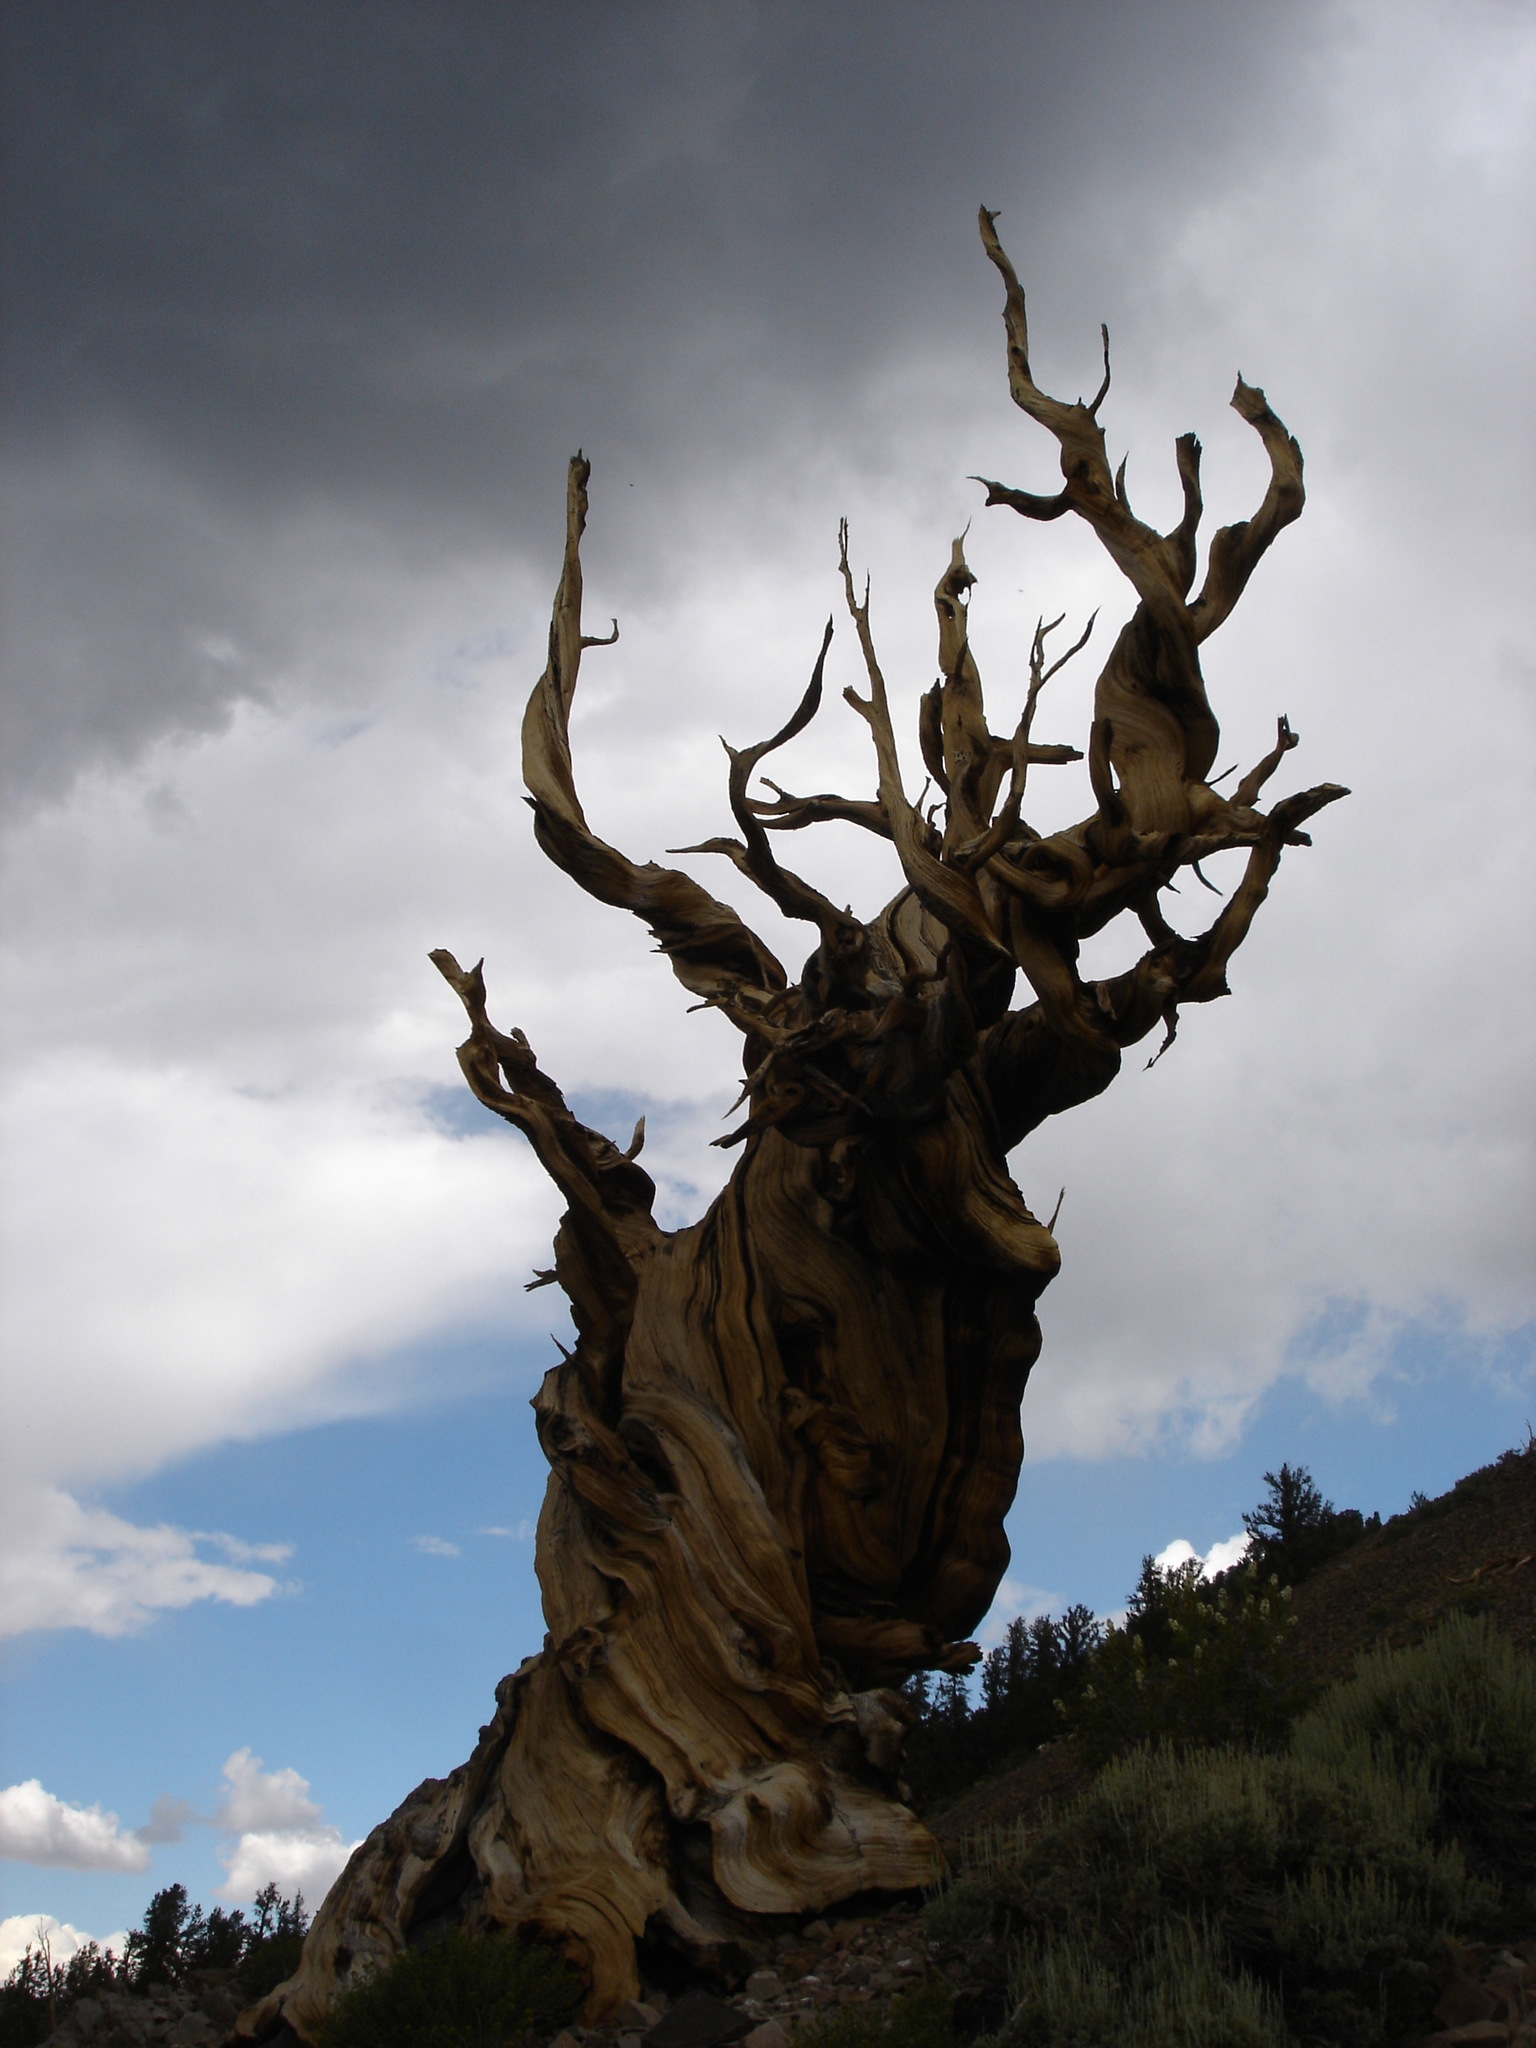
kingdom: Plantae
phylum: Tracheophyta
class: Pinopsida
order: Pinales
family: Pinaceae
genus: Pinus
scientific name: Pinus longaeva
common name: Intermountain bristlecone pine
